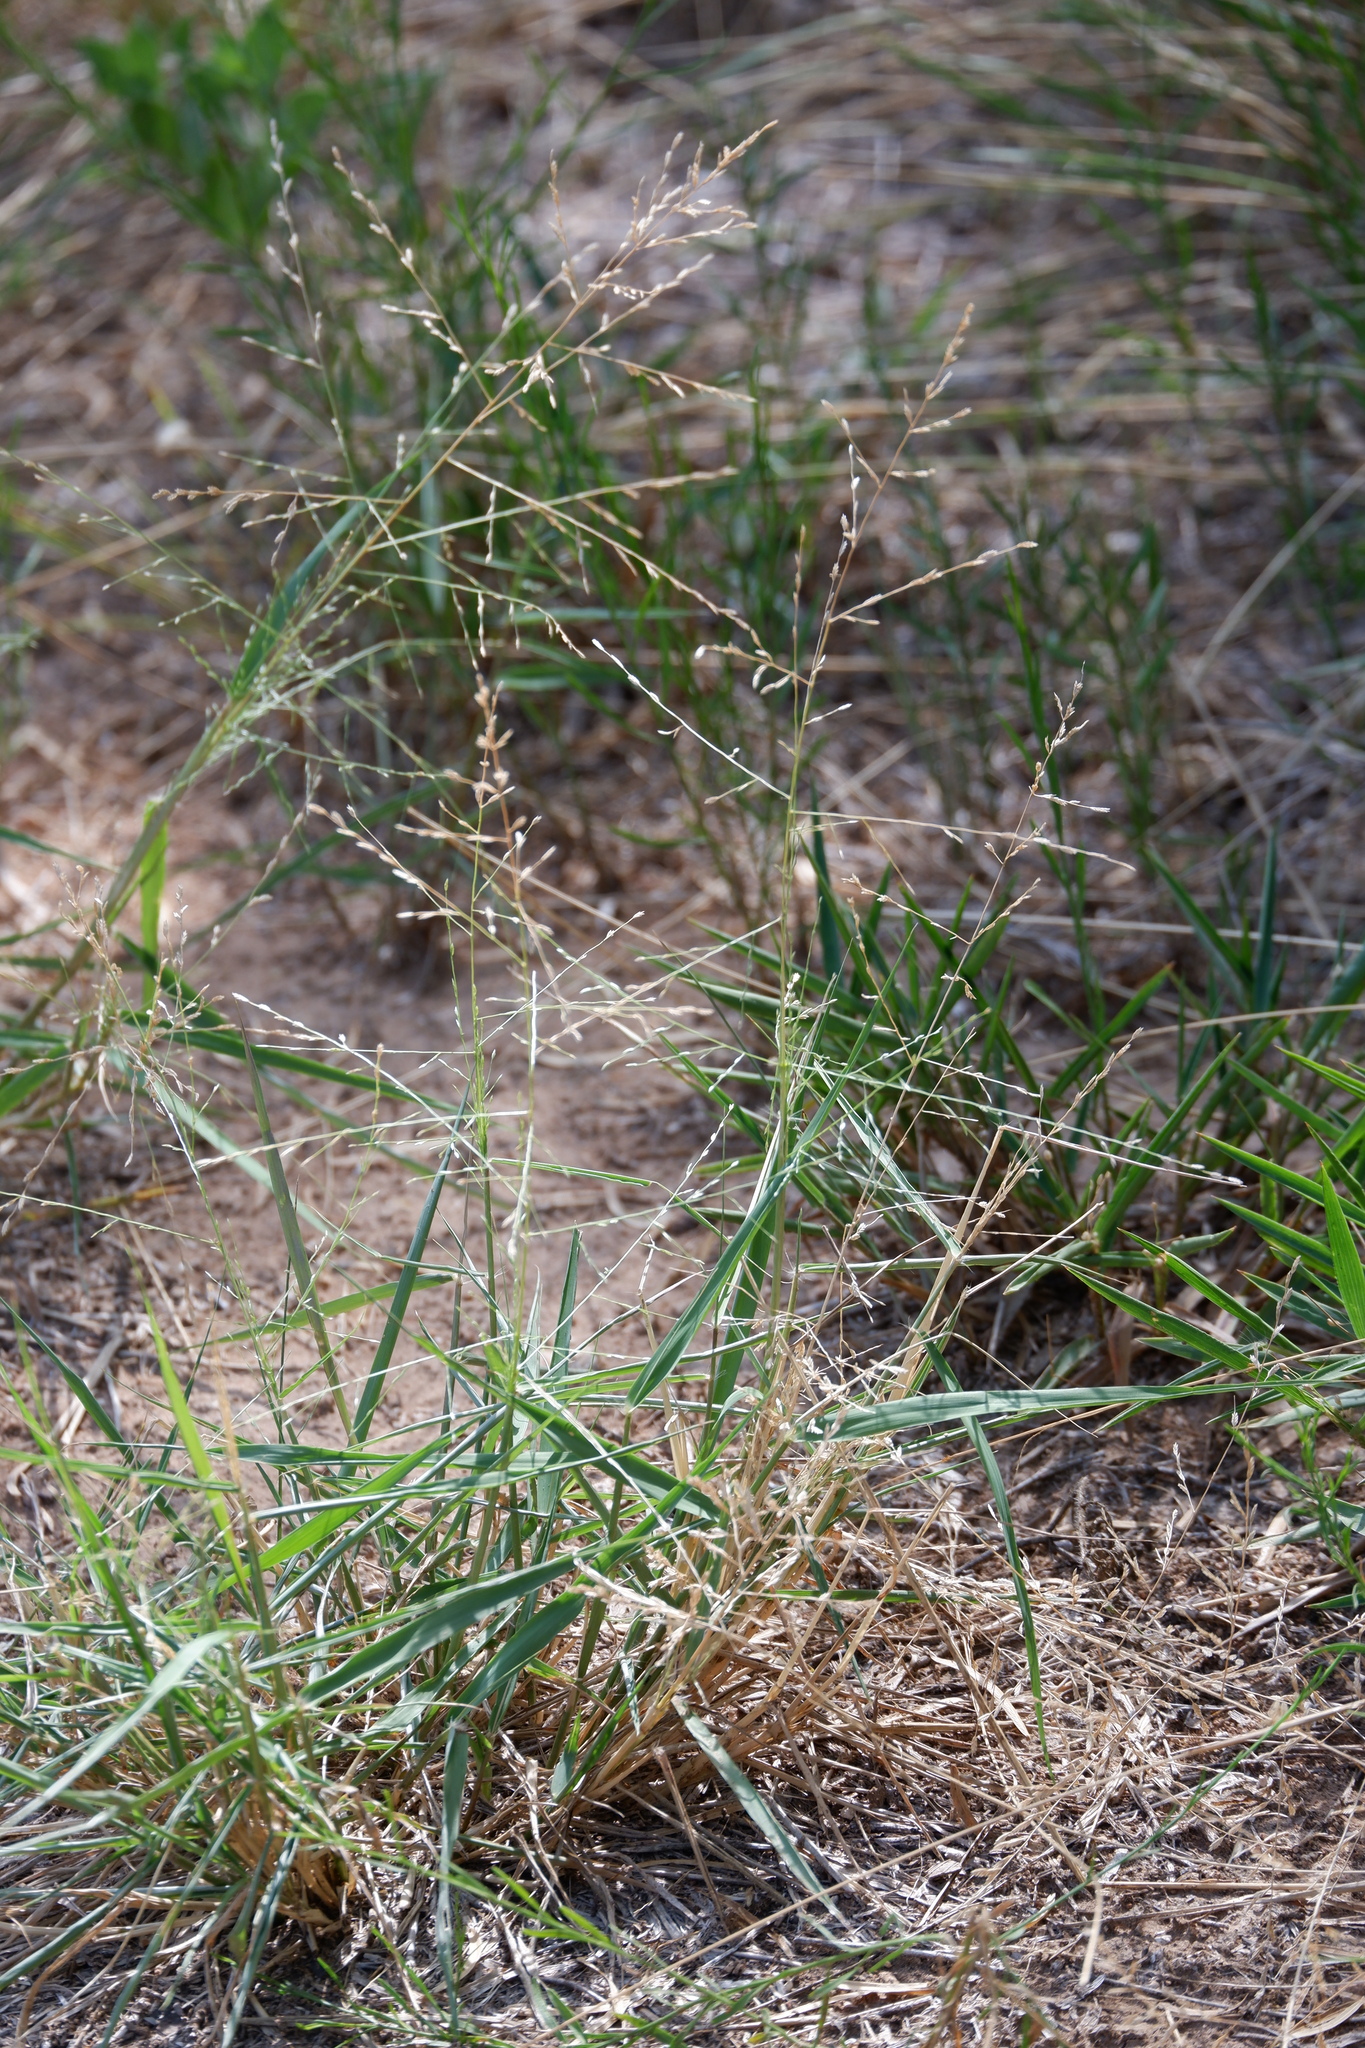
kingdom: Plantae
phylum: Tracheophyta
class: Liliopsida
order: Poales
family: Poaceae
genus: Eragrostis
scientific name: Eragrostis curtipedicellata
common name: Gummy love grass
